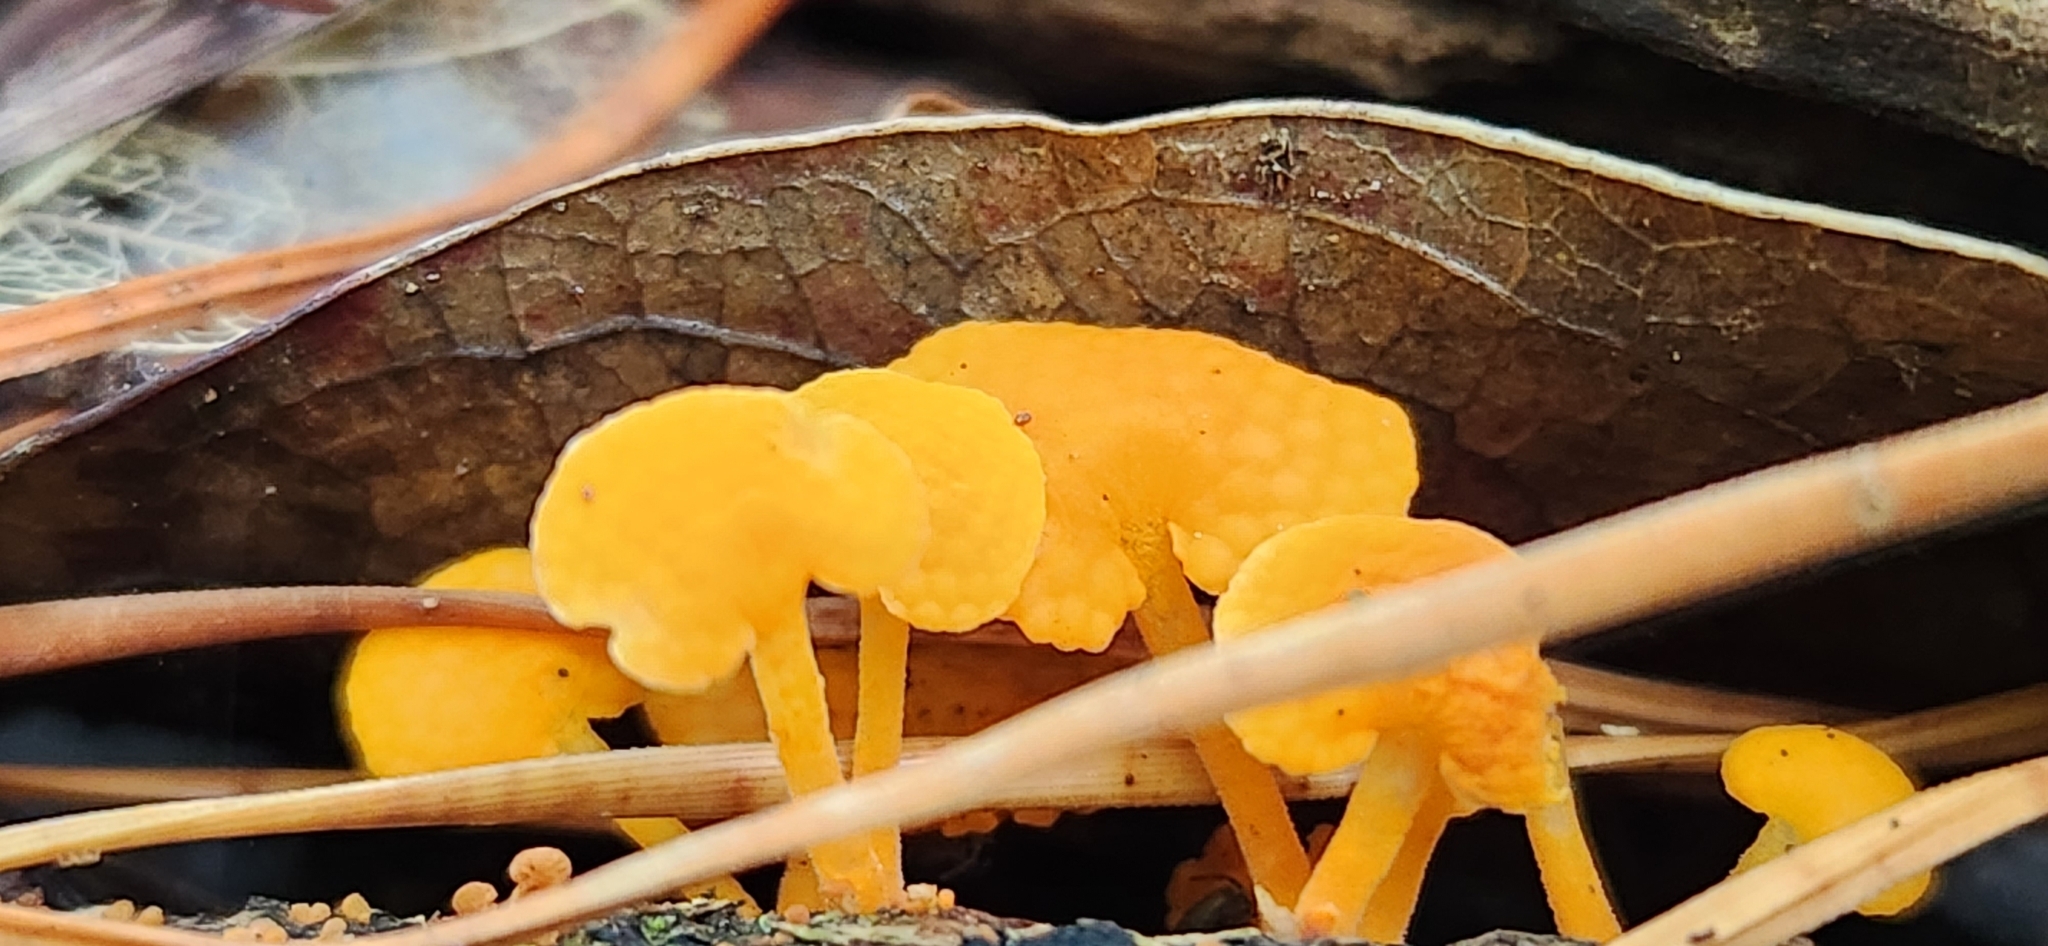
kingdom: Fungi
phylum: Basidiomycota
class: Agaricomycetes
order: Agaricales
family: Mycenaceae
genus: Favolaschia
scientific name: Favolaschia claudopus
